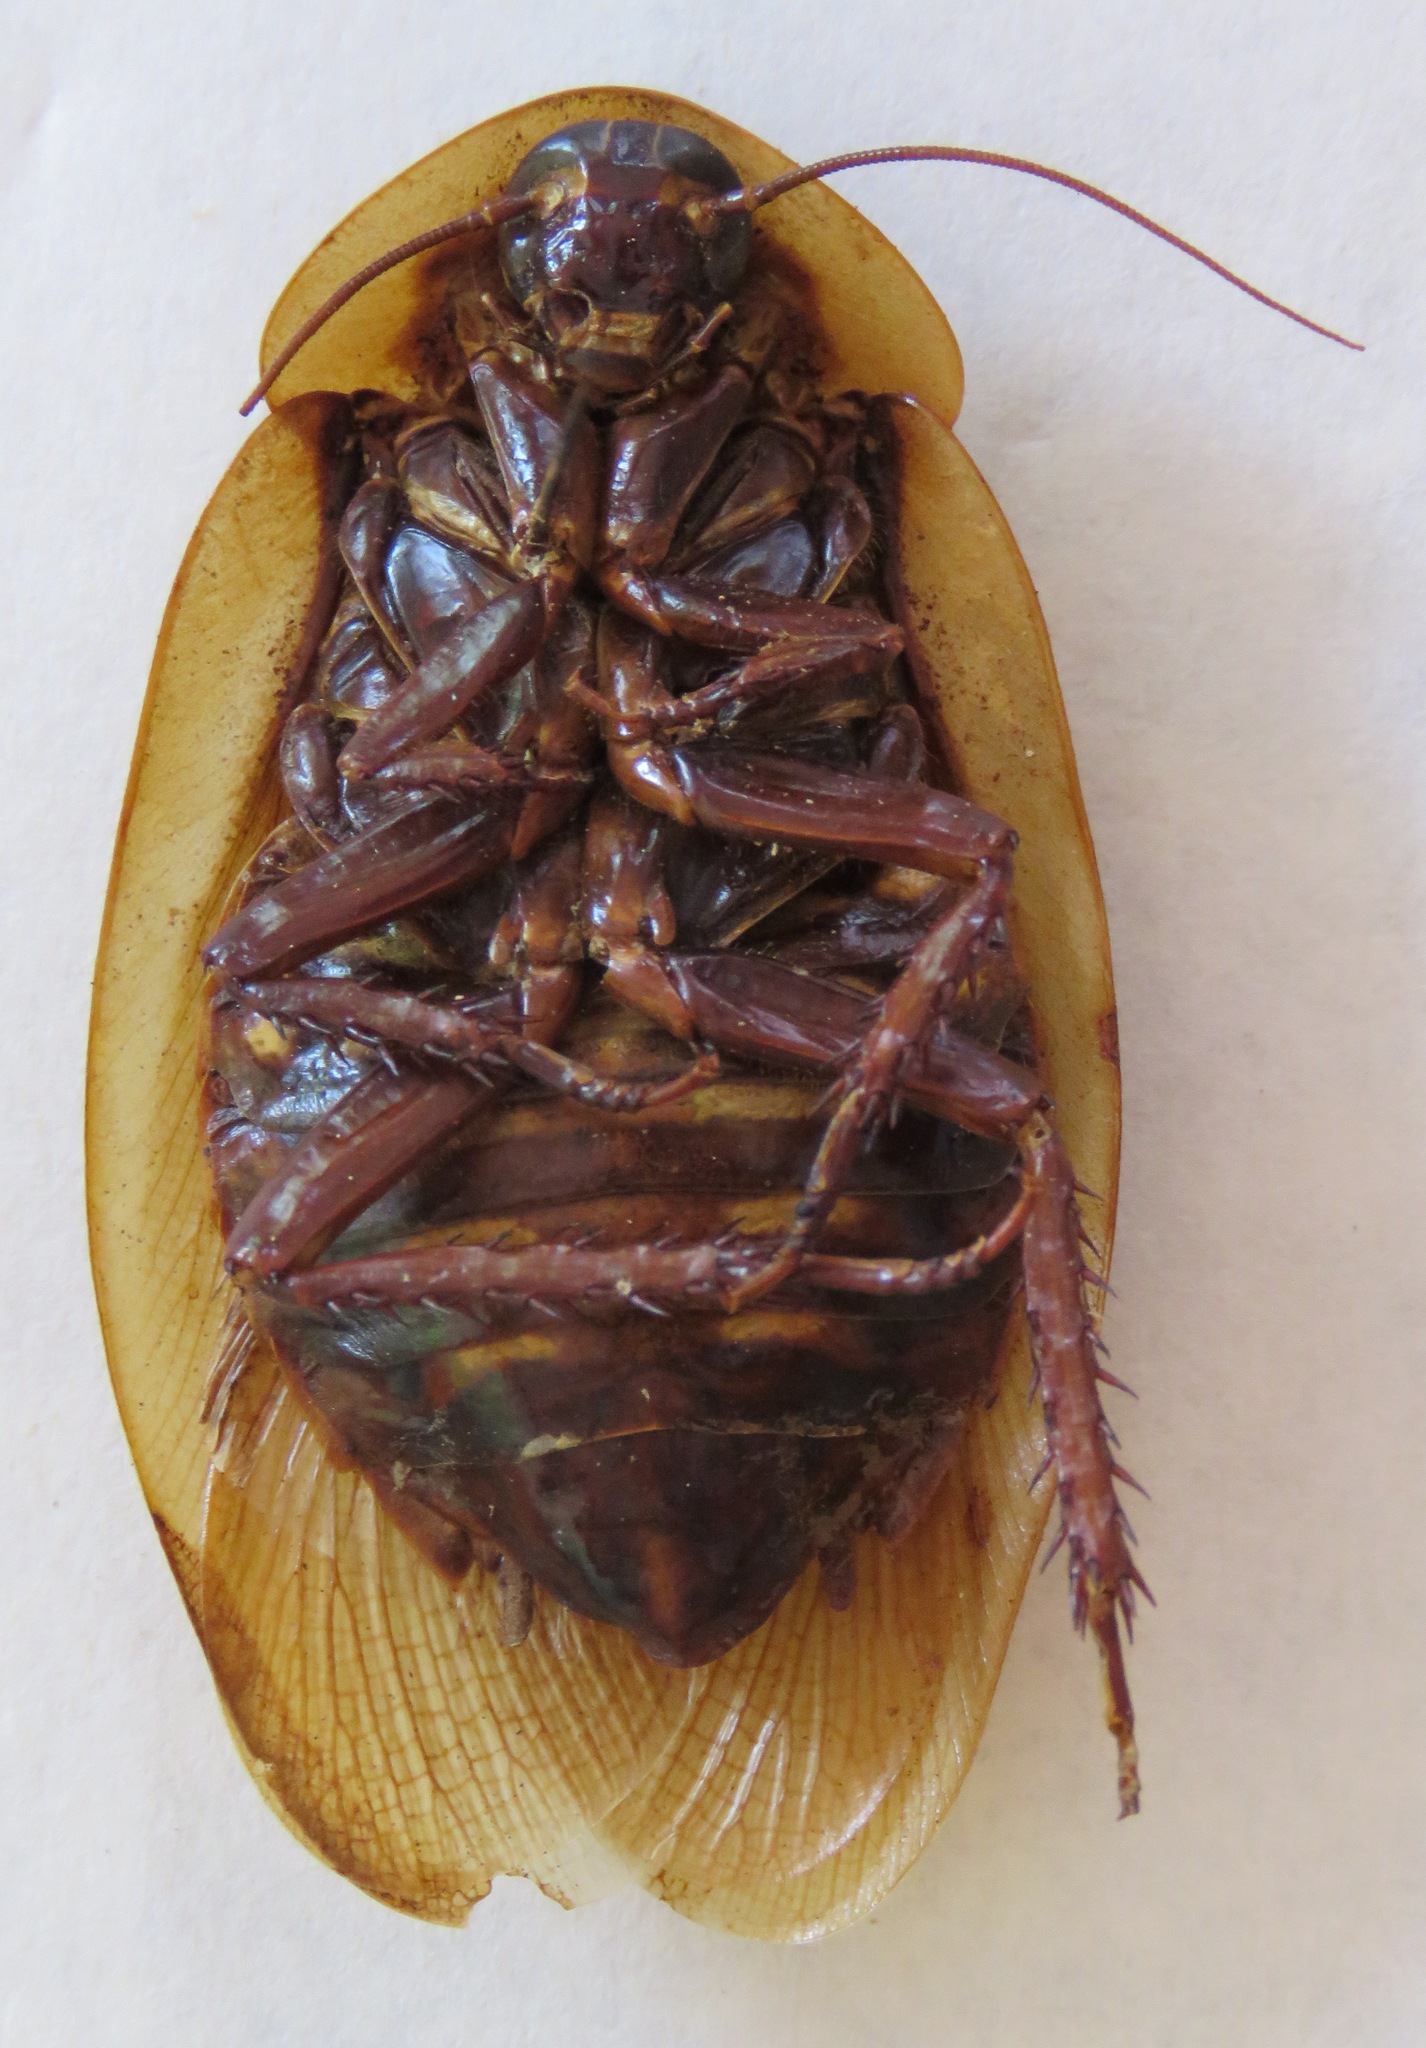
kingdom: Animalia
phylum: Arthropoda
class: Insecta
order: Blattodea
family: Blaberidae
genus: Blaberus
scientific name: Blaberus discoidalis
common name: Discoid cockroach
